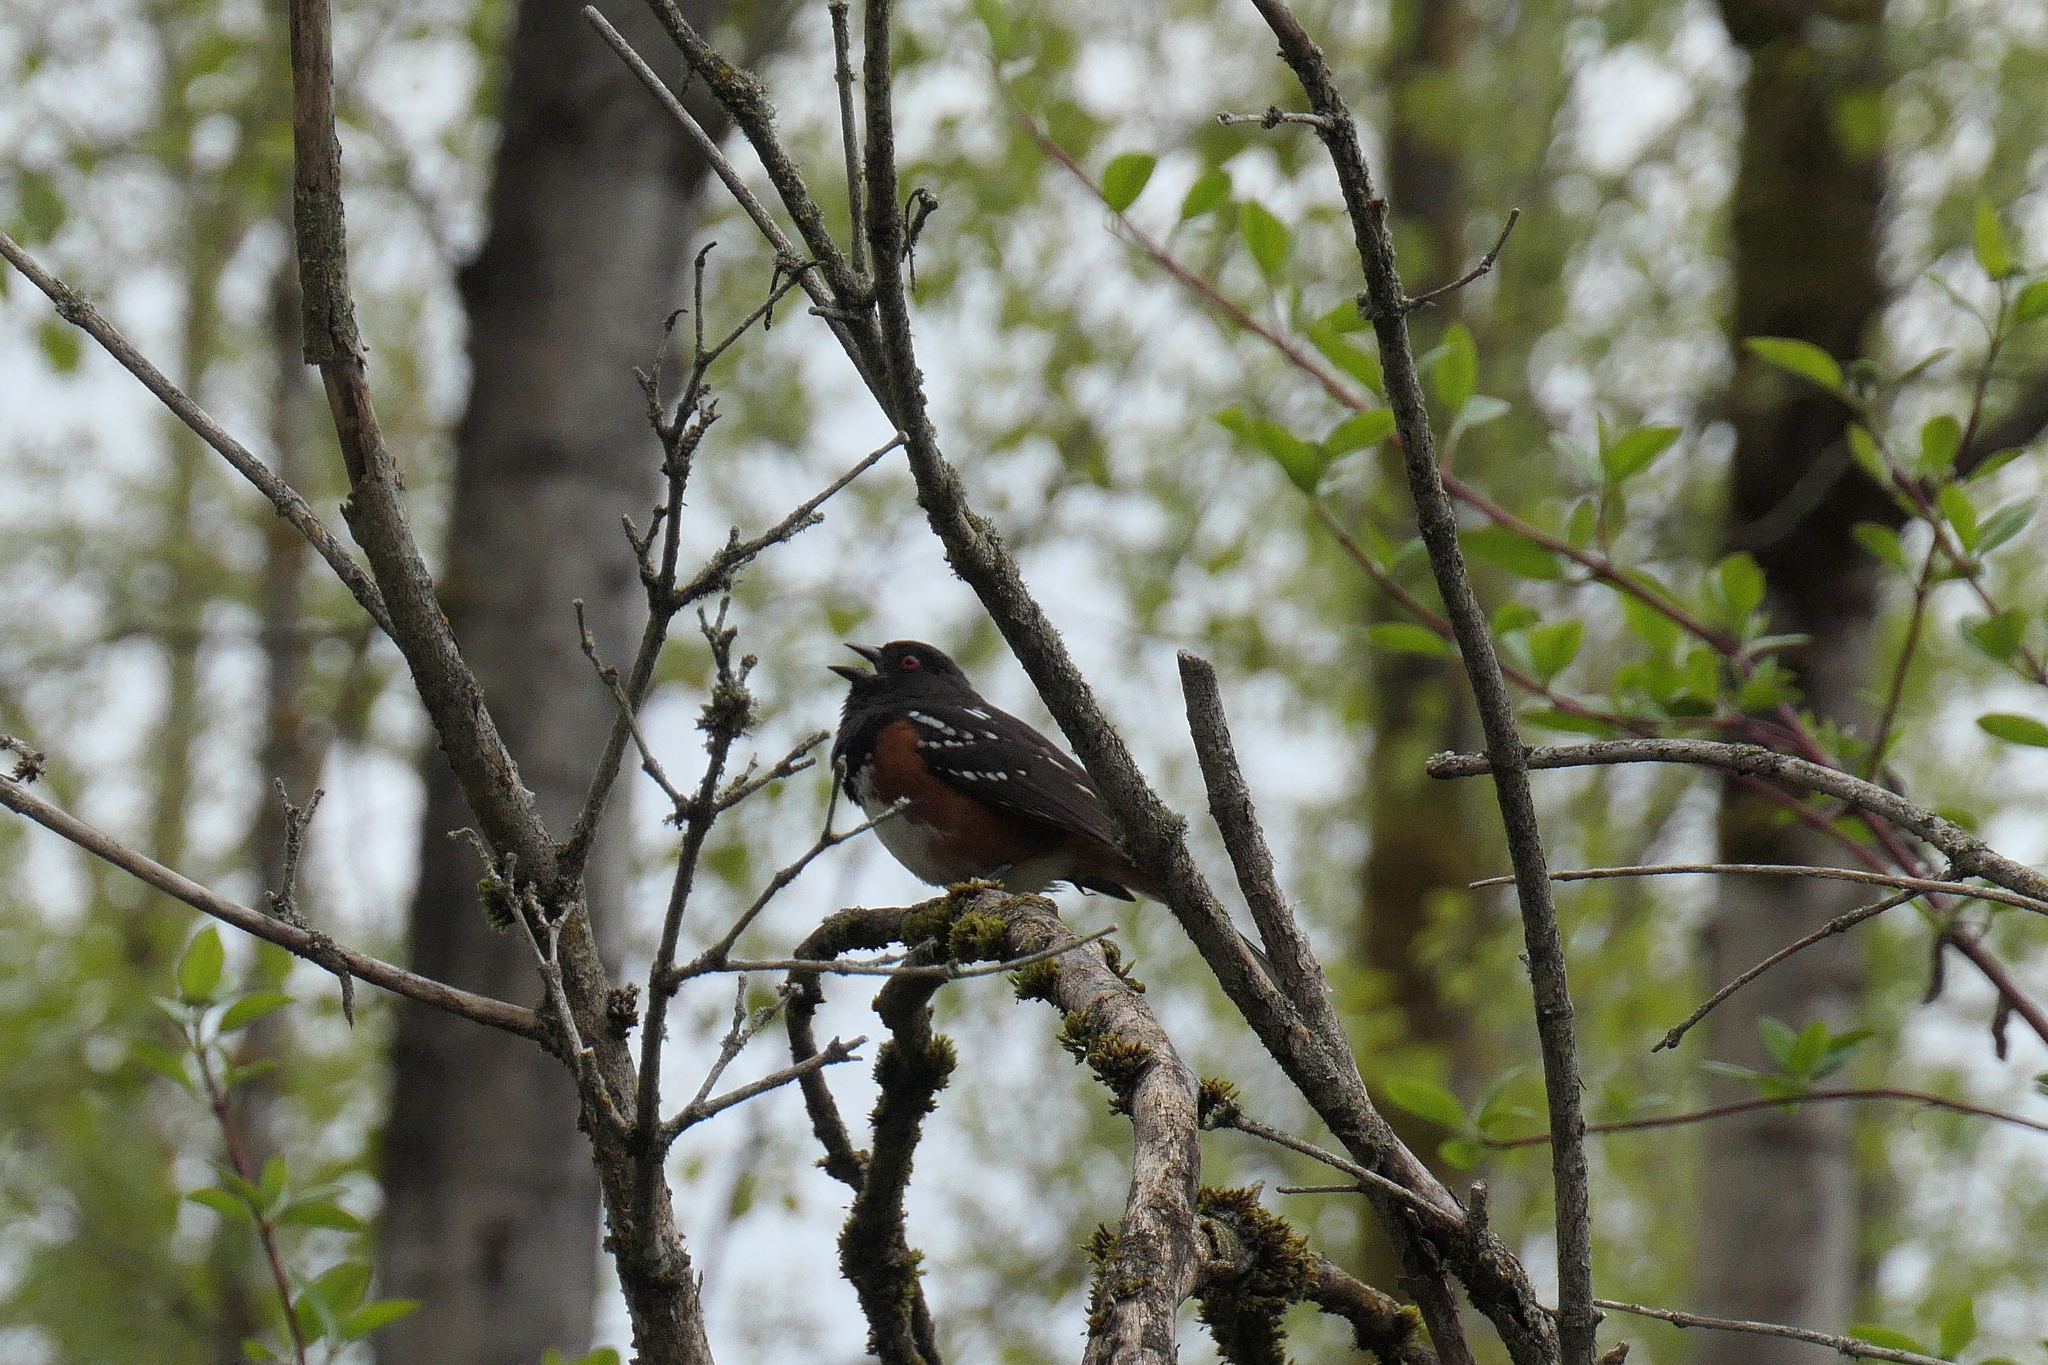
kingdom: Animalia
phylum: Chordata
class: Aves
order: Passeriformes
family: Passerellidae
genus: Pipilo
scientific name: Pipilo maculatus
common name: Spotted towhee
